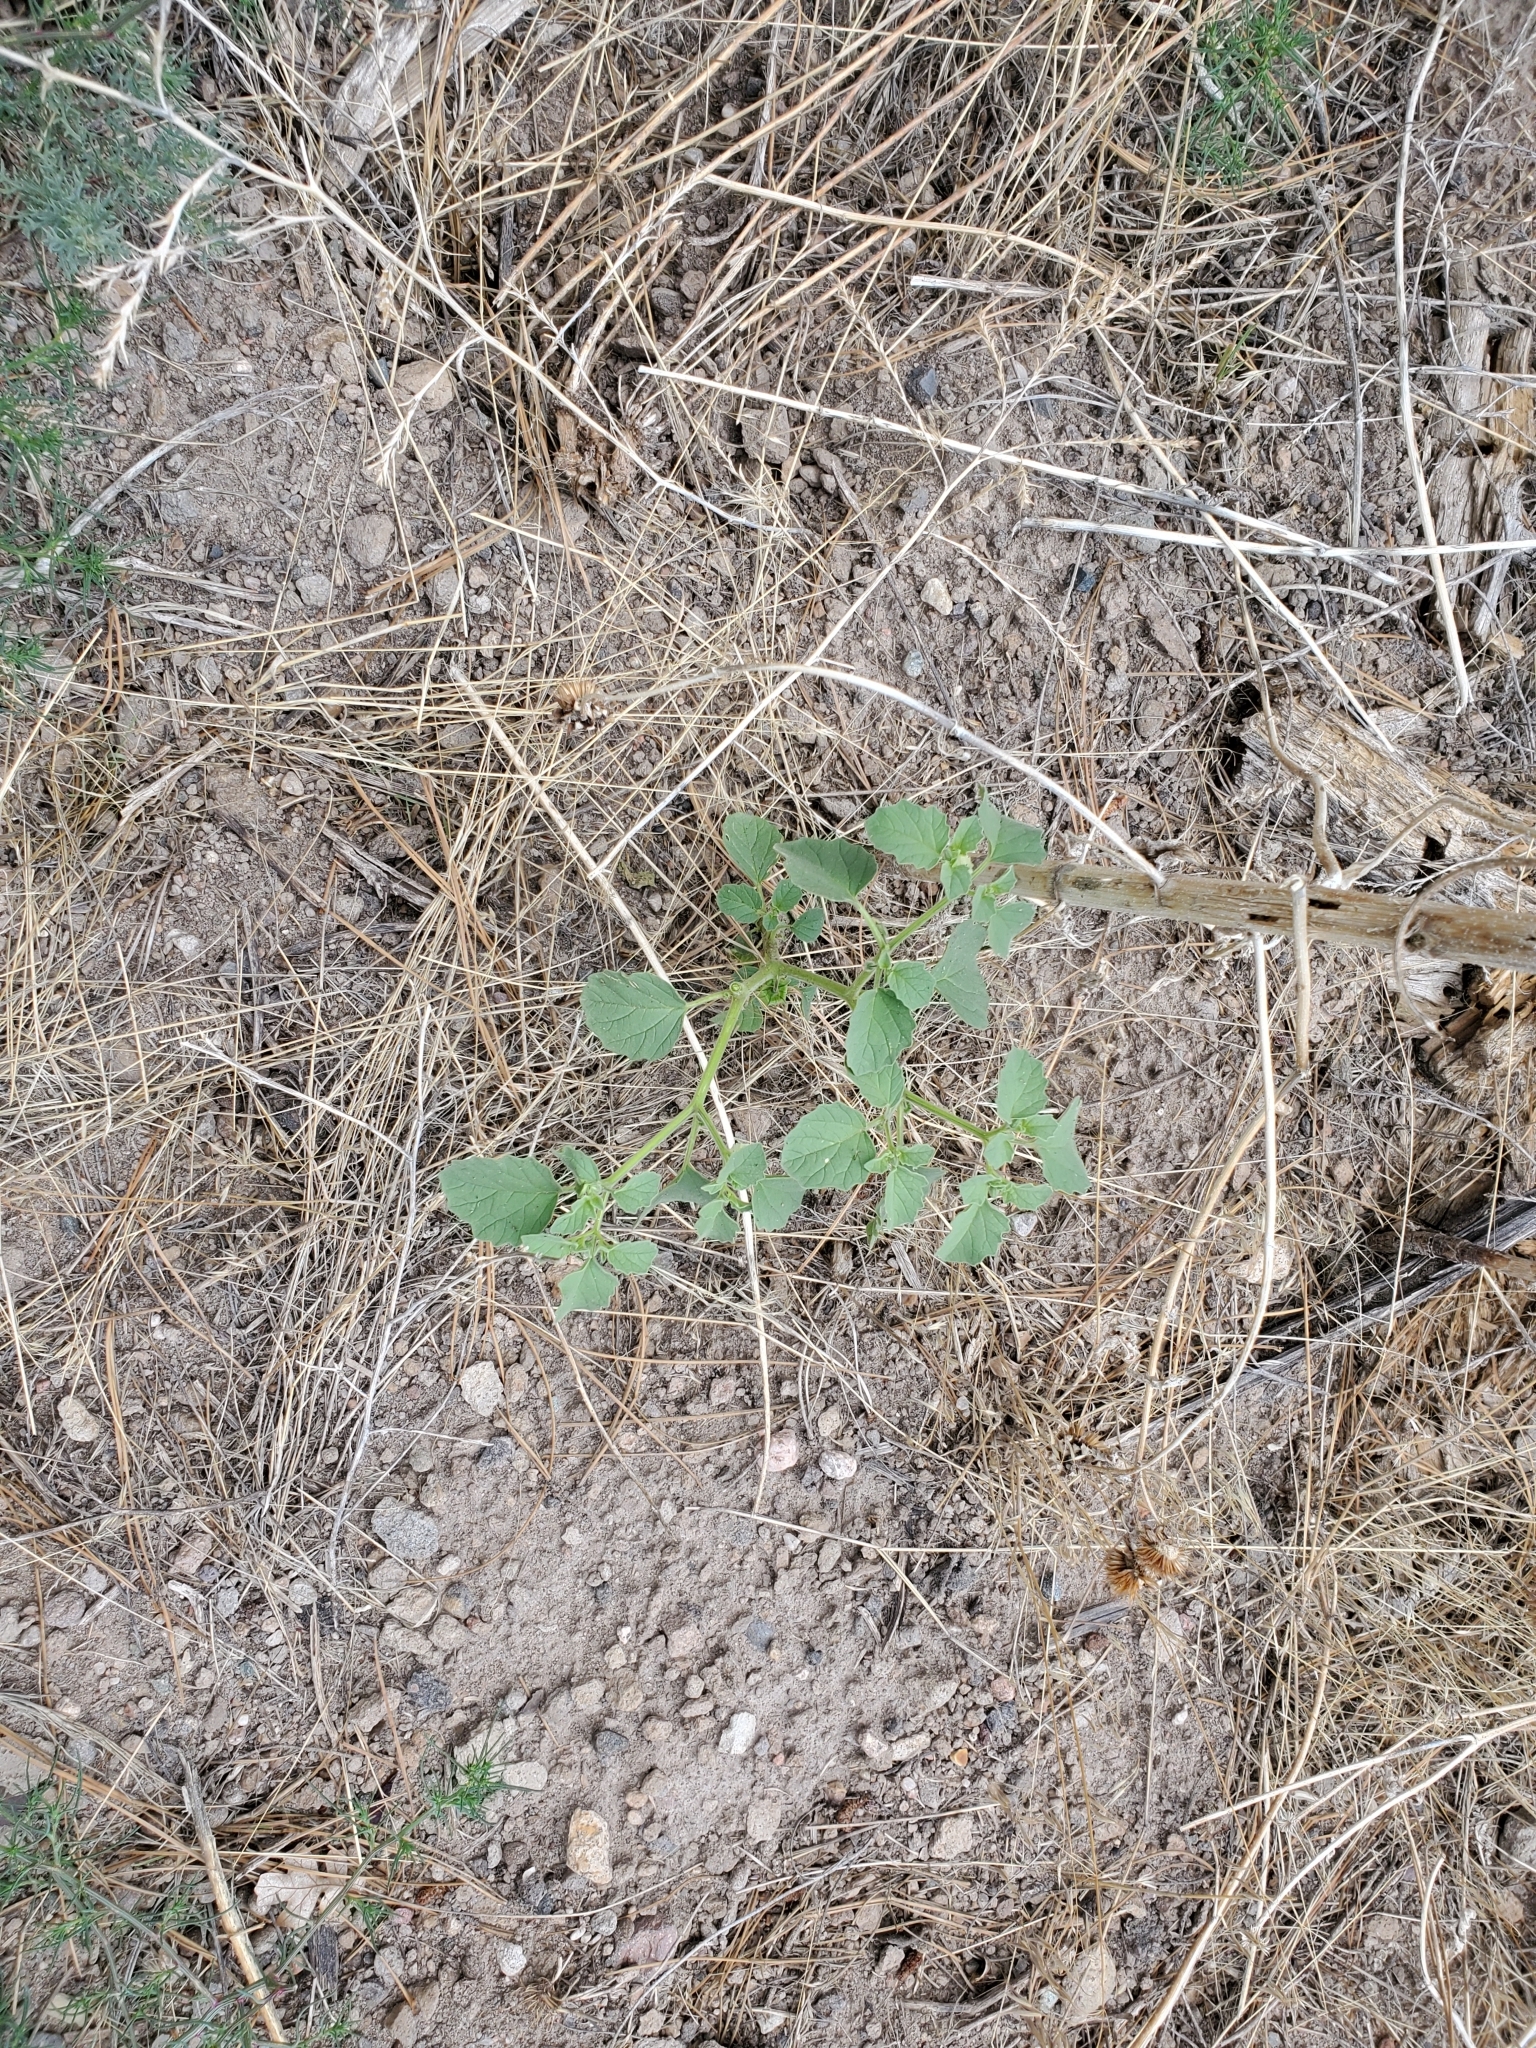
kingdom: Plantae
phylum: Tracheophyta
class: Magnoliopsida
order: Solanales
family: Solanaceae
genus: Physalis
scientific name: Physalis neomexicana
